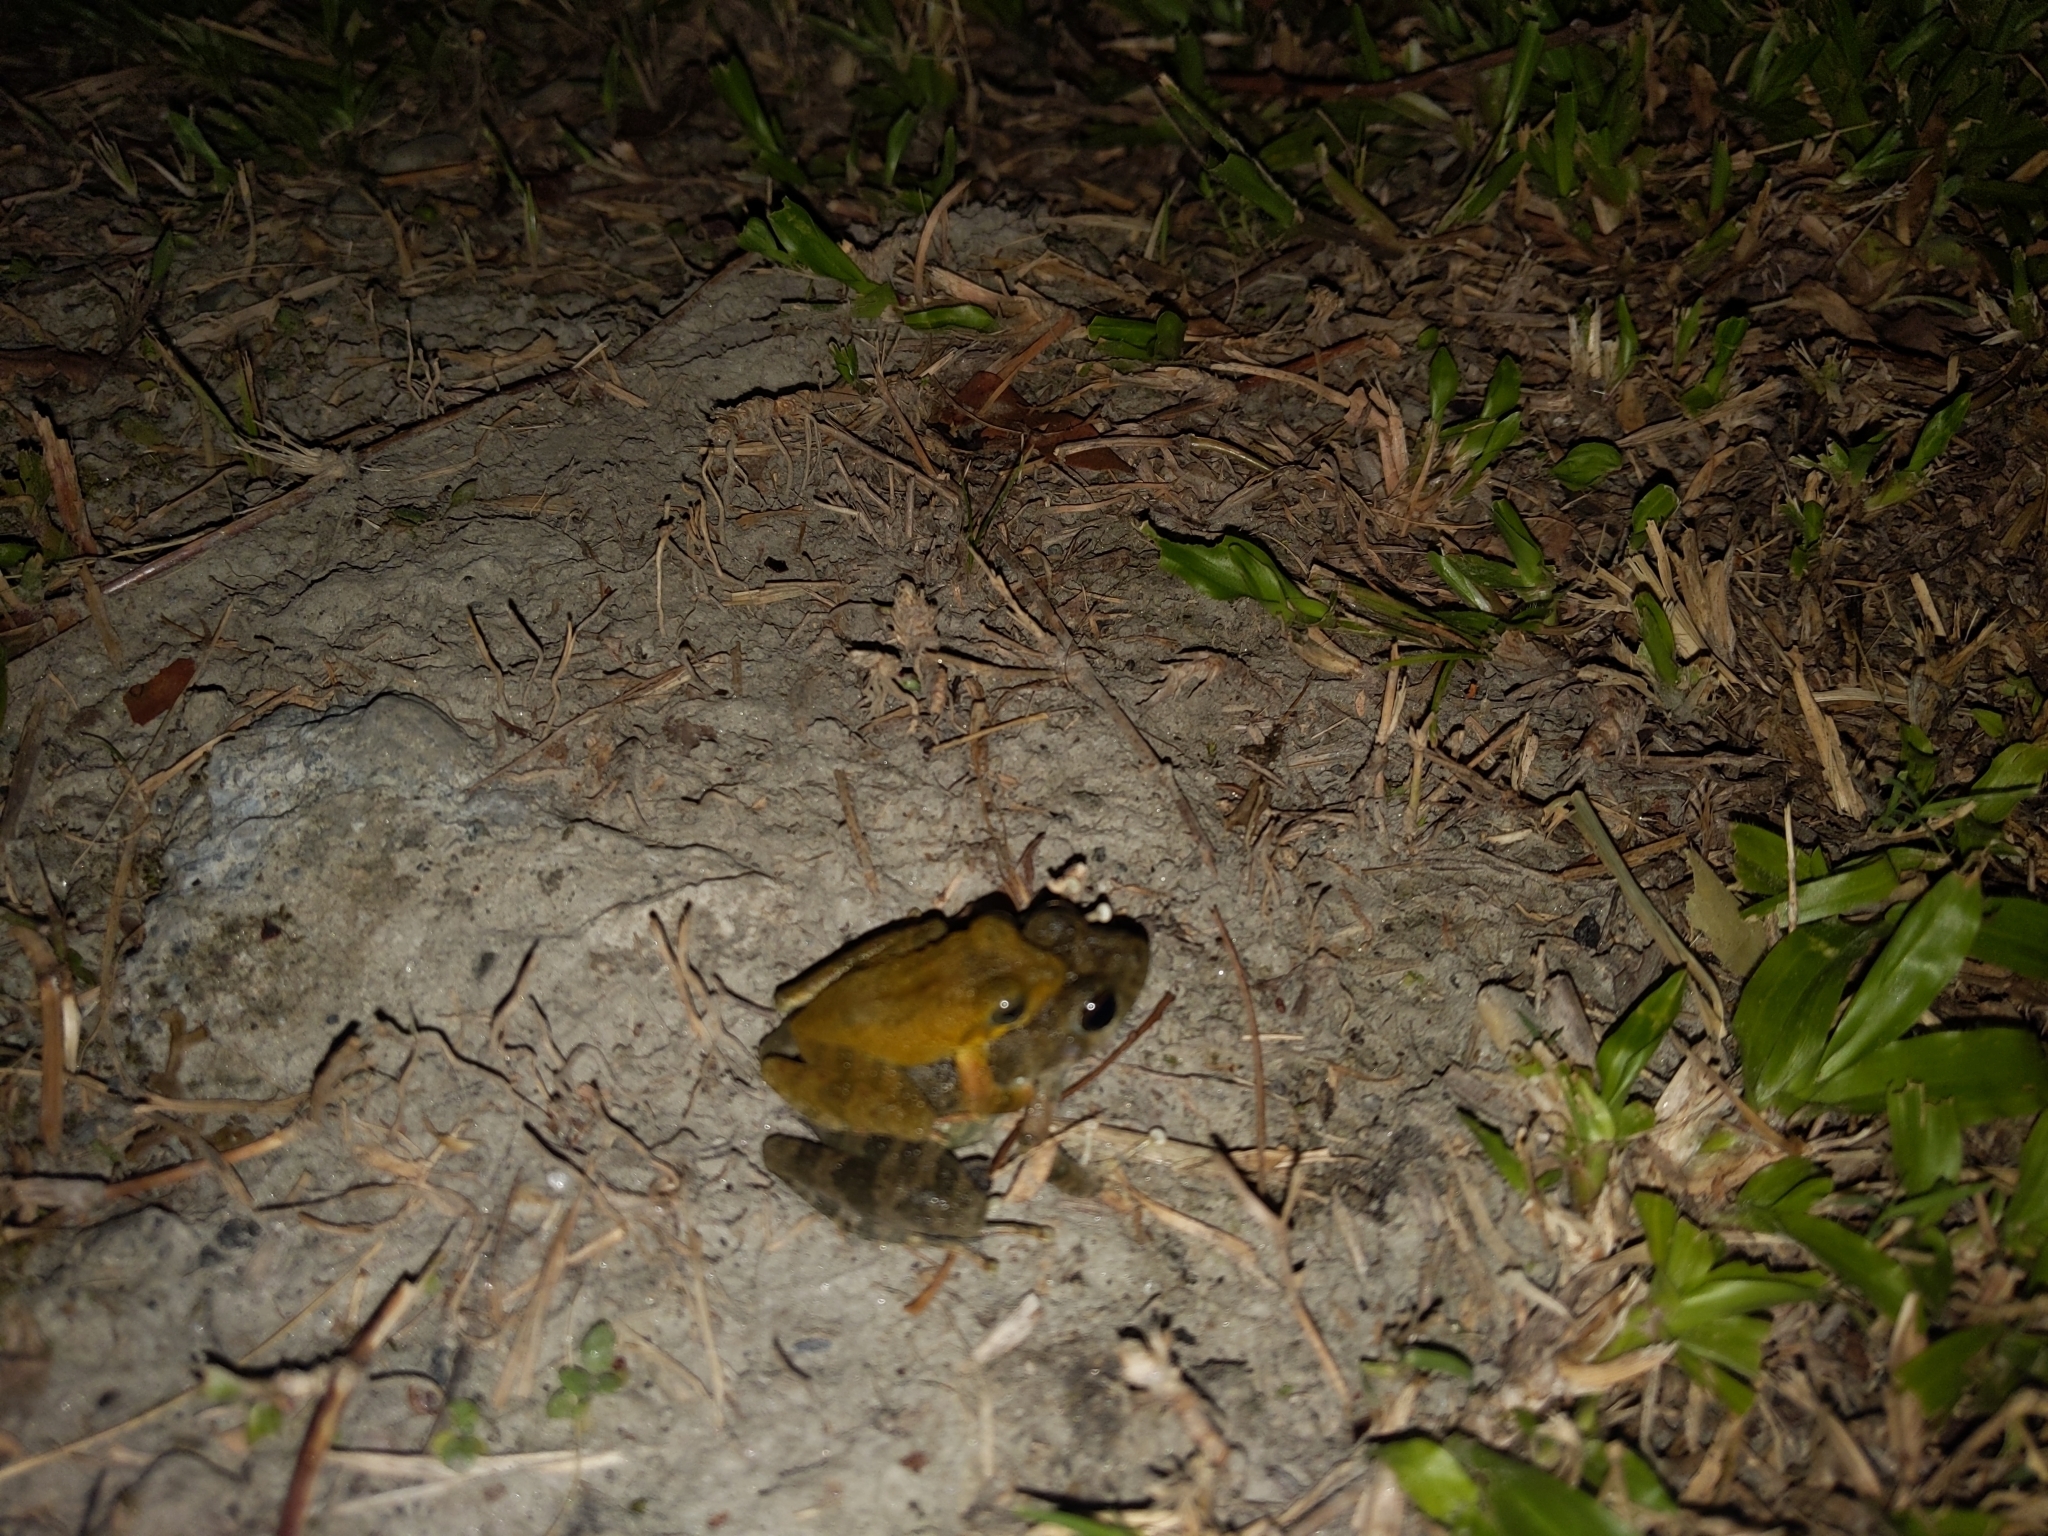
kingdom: Animalia
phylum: Chordata
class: Amphibia
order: Anura
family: Rhacophoridae
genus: Buergeria
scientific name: Buergeria otai
